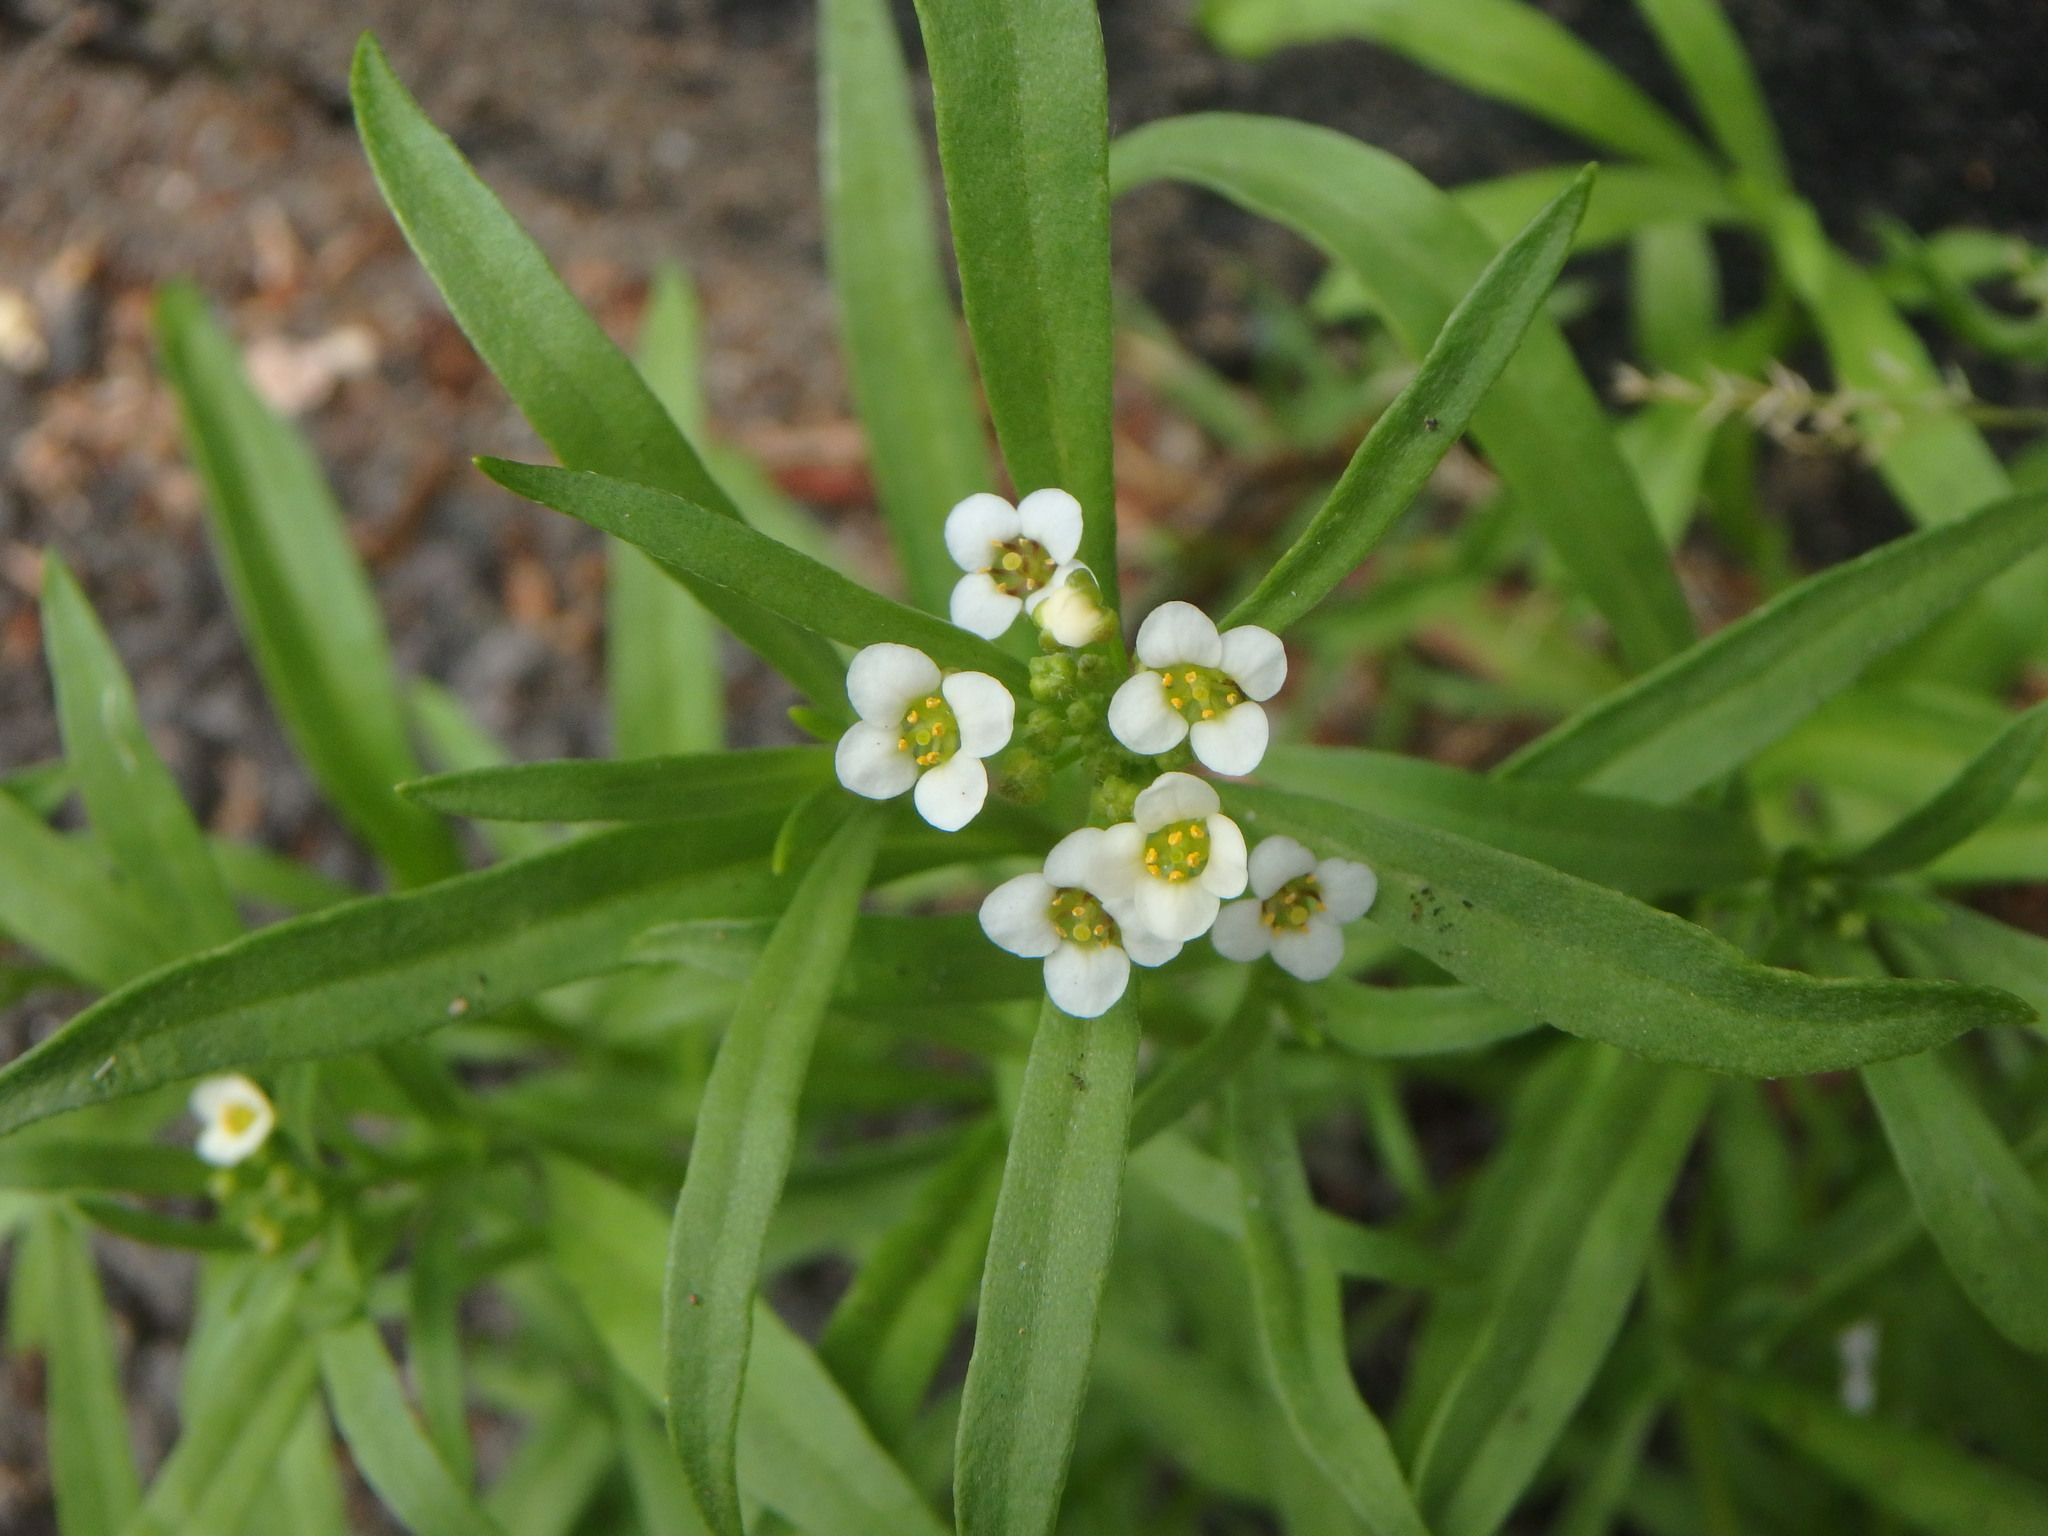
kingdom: Plantae
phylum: Tracheophyta
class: Magnoliopsida
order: Brassicales
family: Brassicaceae
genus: Lobularia
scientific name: Lobularia maritima
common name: Sweet alison
